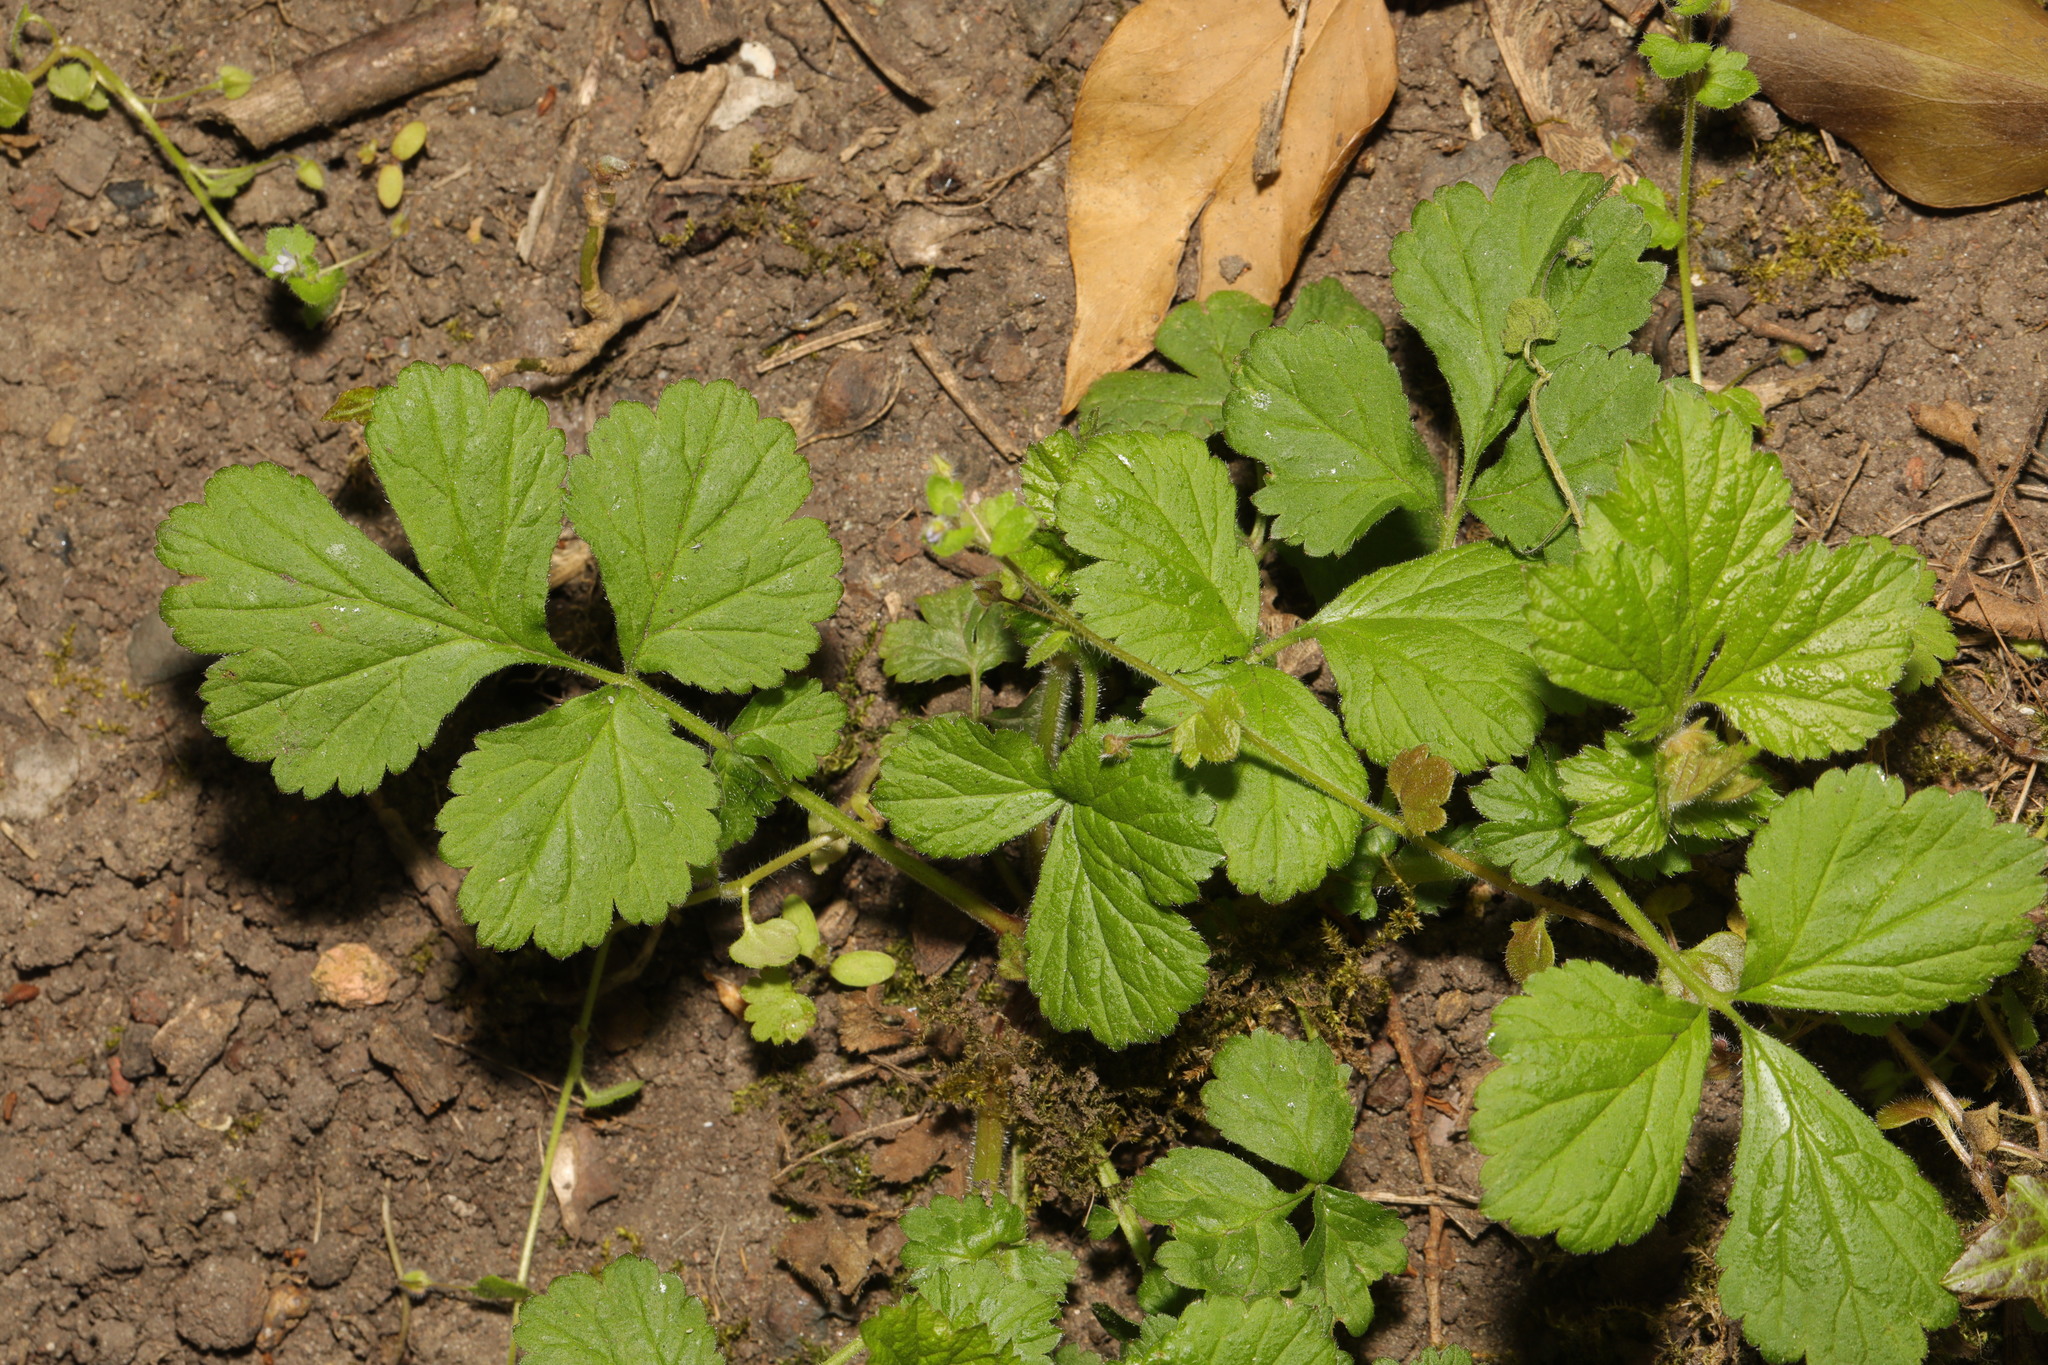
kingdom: Plantae
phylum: Tracheophyta
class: Magnoliopsida
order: Rosales
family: Rosaceae
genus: Geum
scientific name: Geum urbanum
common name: Wood avens
